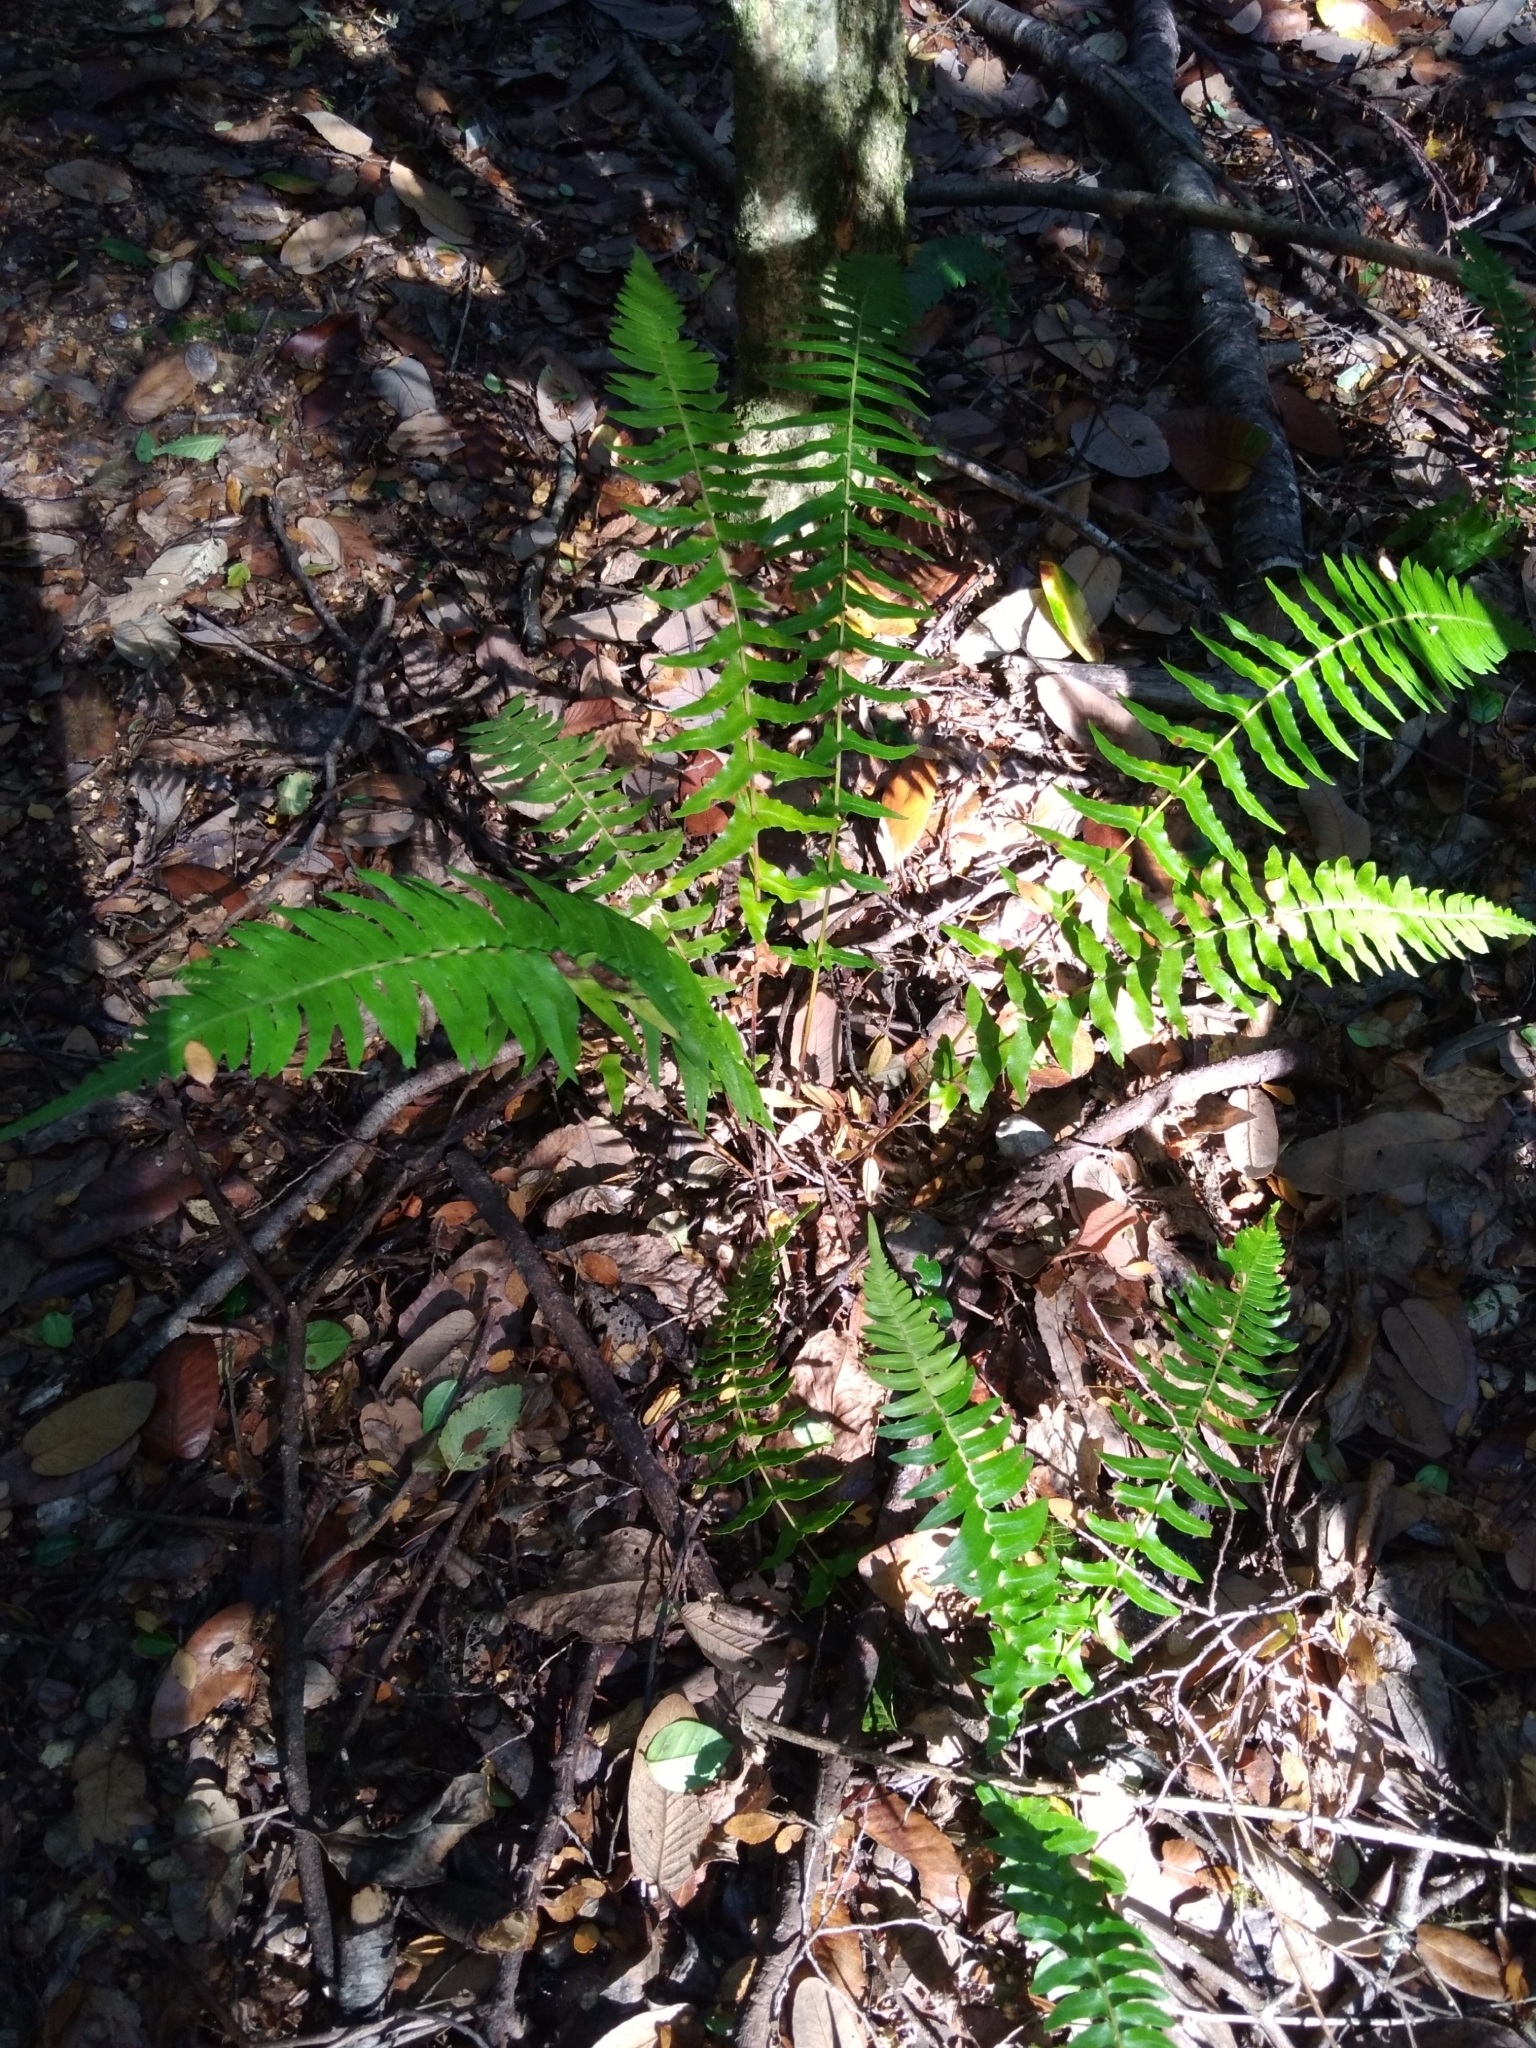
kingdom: Plantae
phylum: Tracheophyta
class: Polypodiopsida
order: Polypodiales
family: Blechnaceae
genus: Blechnum
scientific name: Blechnum hastatum
